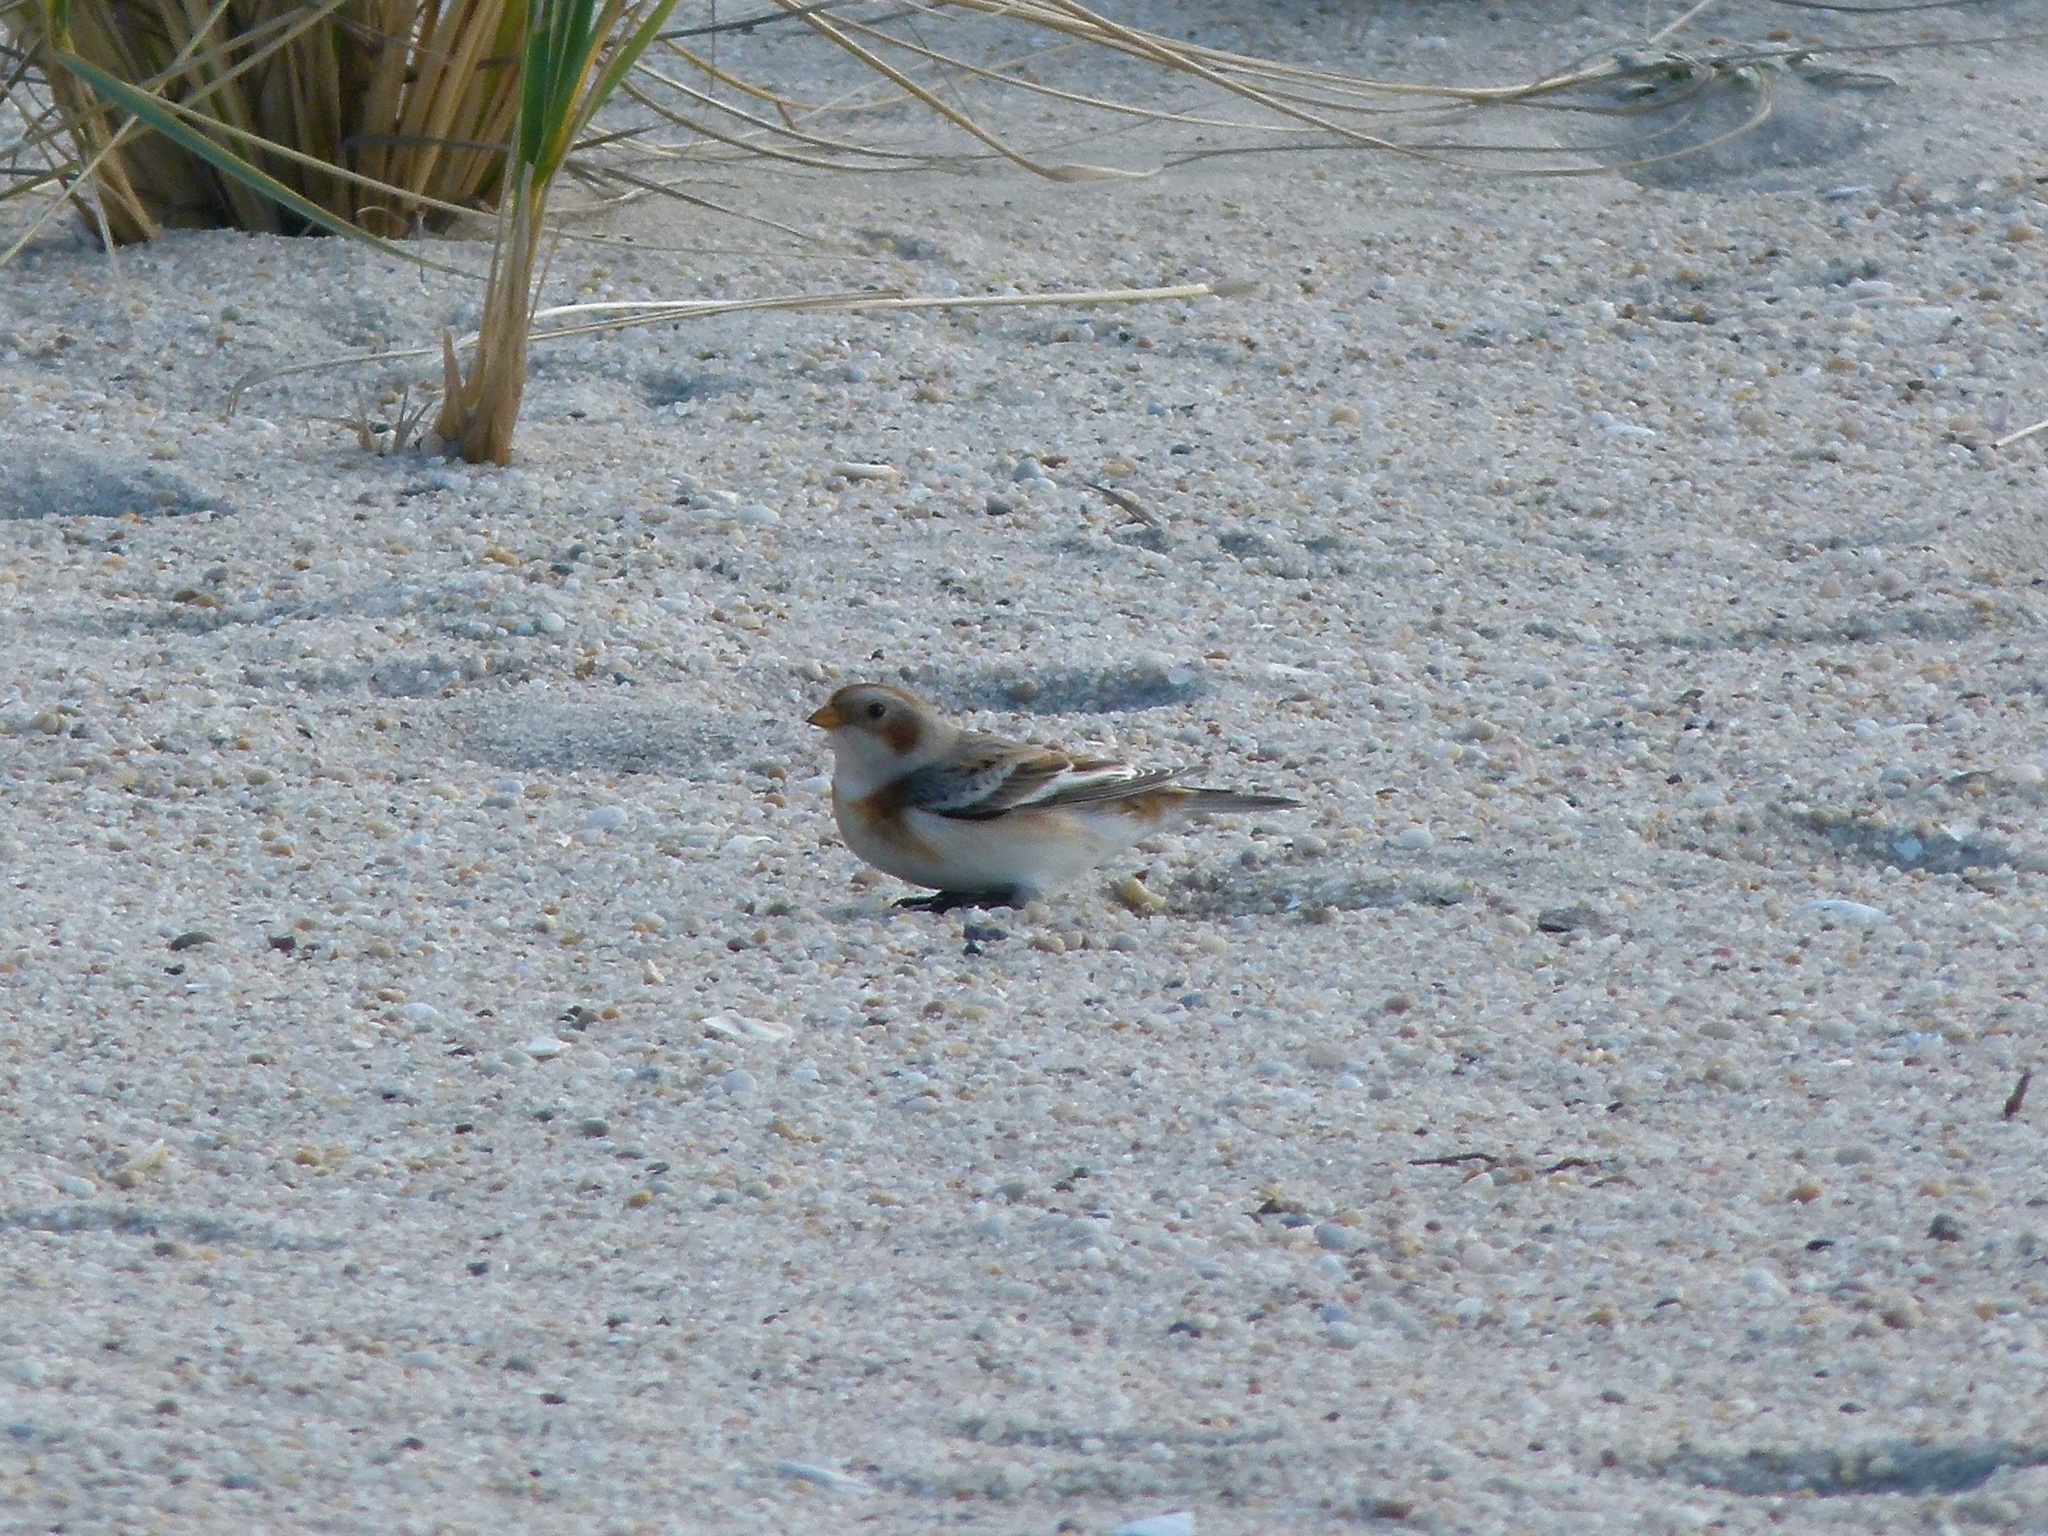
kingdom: Animalia
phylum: Chordata
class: Aves
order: Passeriformes
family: Calcariidae
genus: Plectrophenax
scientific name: Plectrophenax nivalis
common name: Snow bunting
